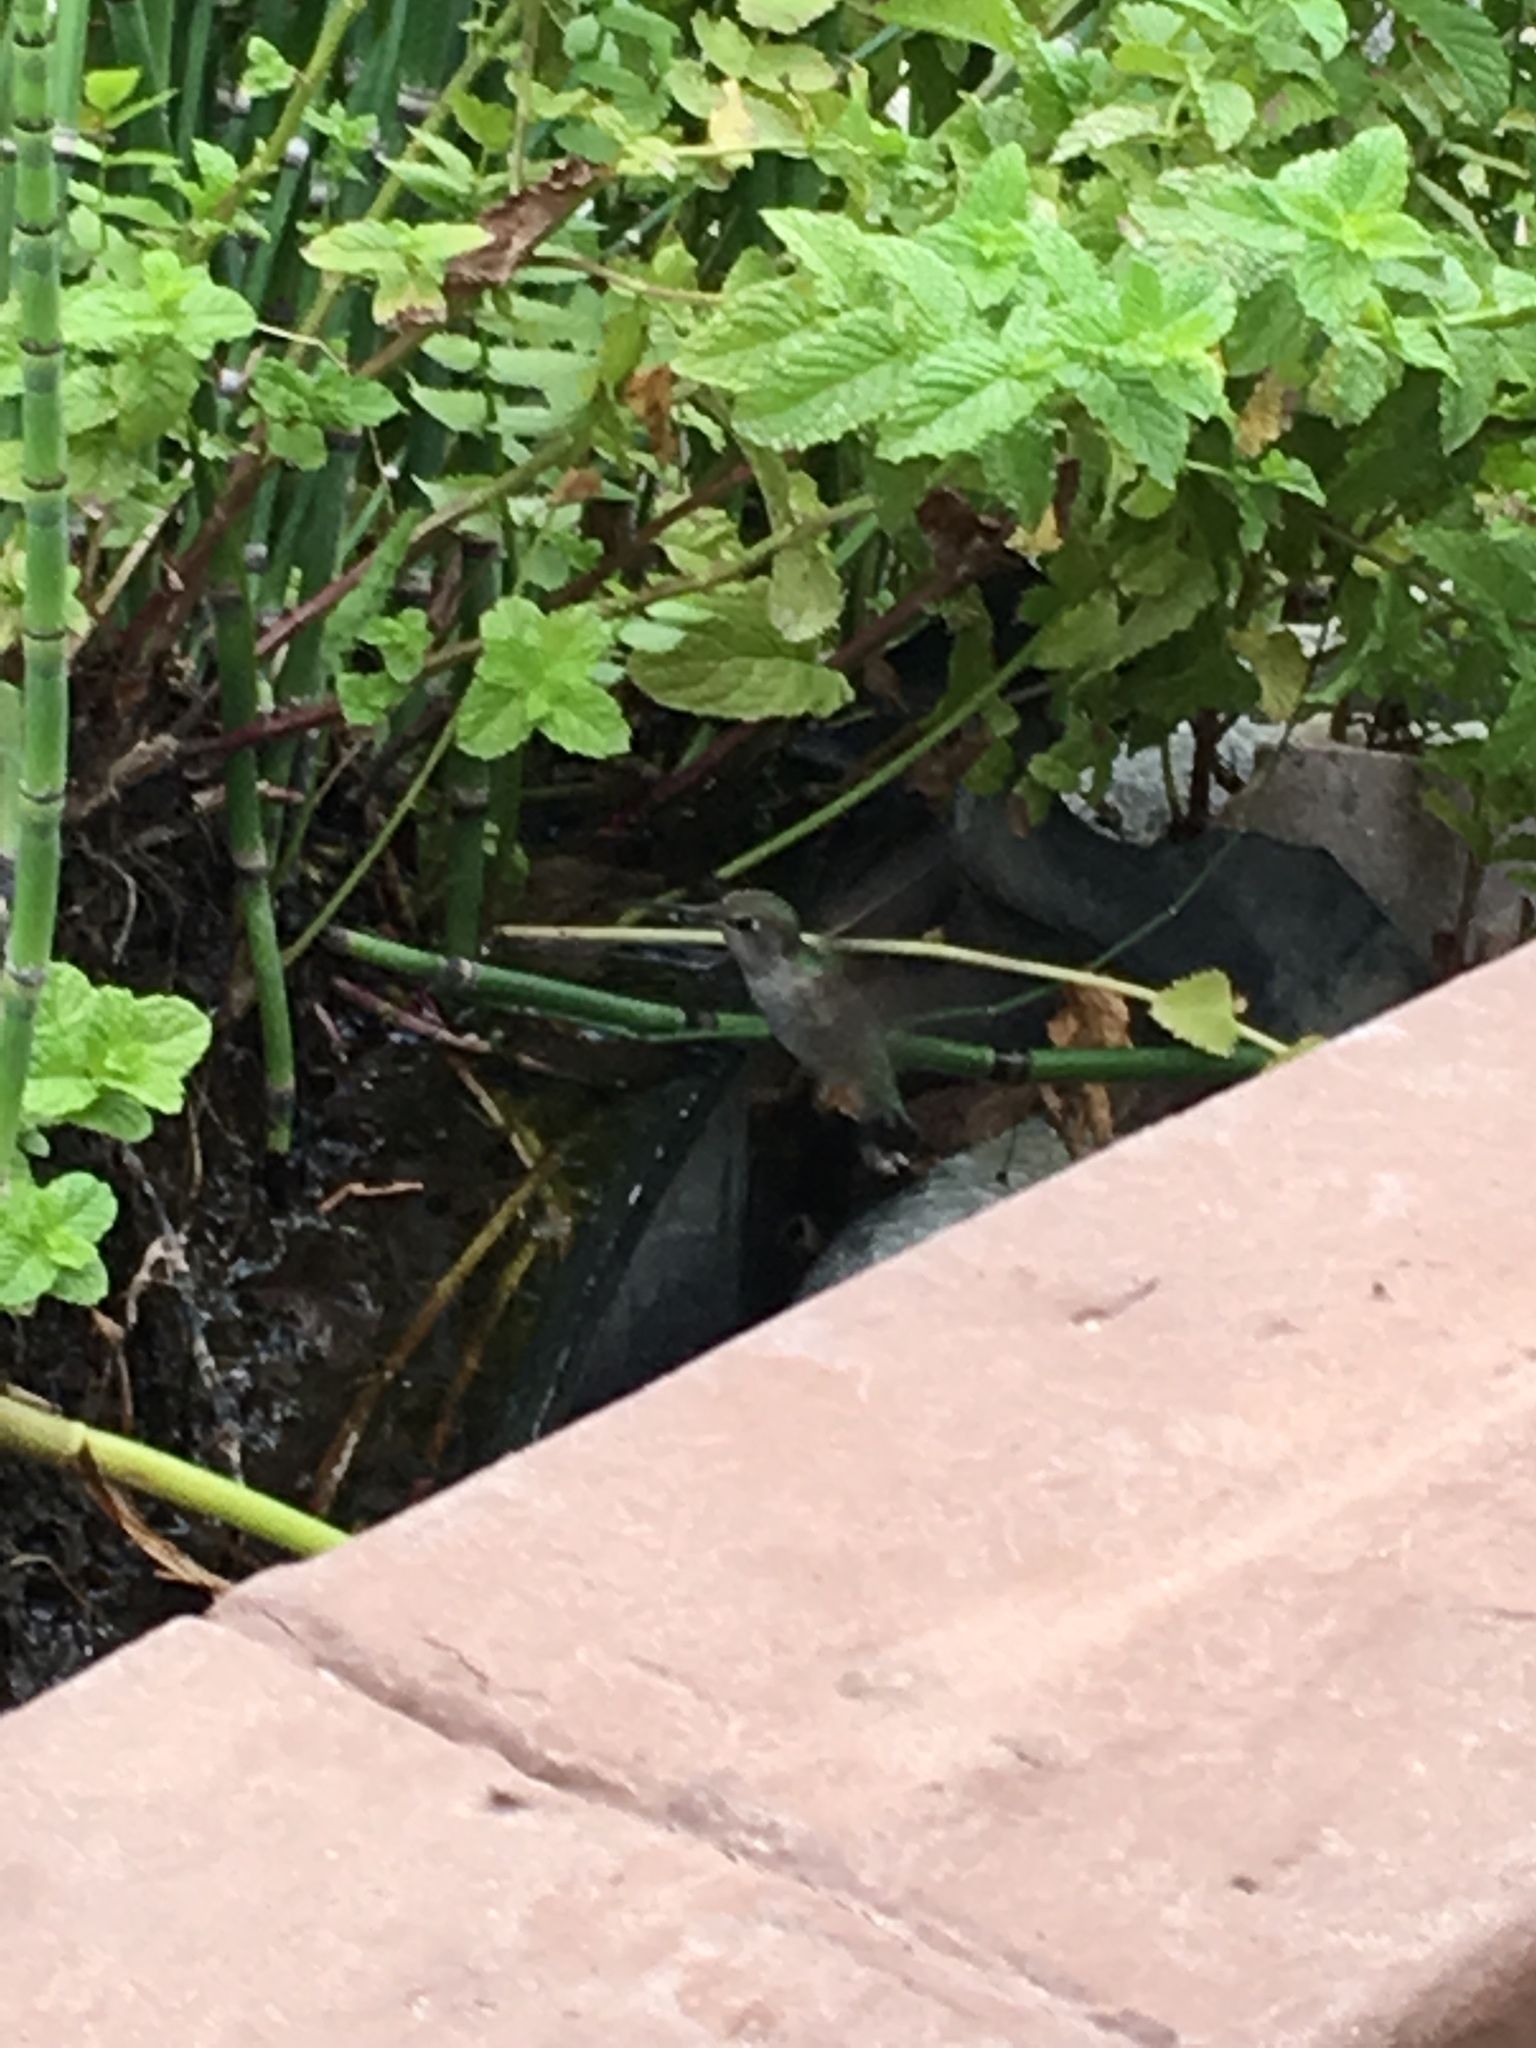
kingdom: Animalia
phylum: Chordata
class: Aves
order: Apodiformes
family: Trochilidae
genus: Calypte
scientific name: Calypte anna
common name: Anna's hummingbird
